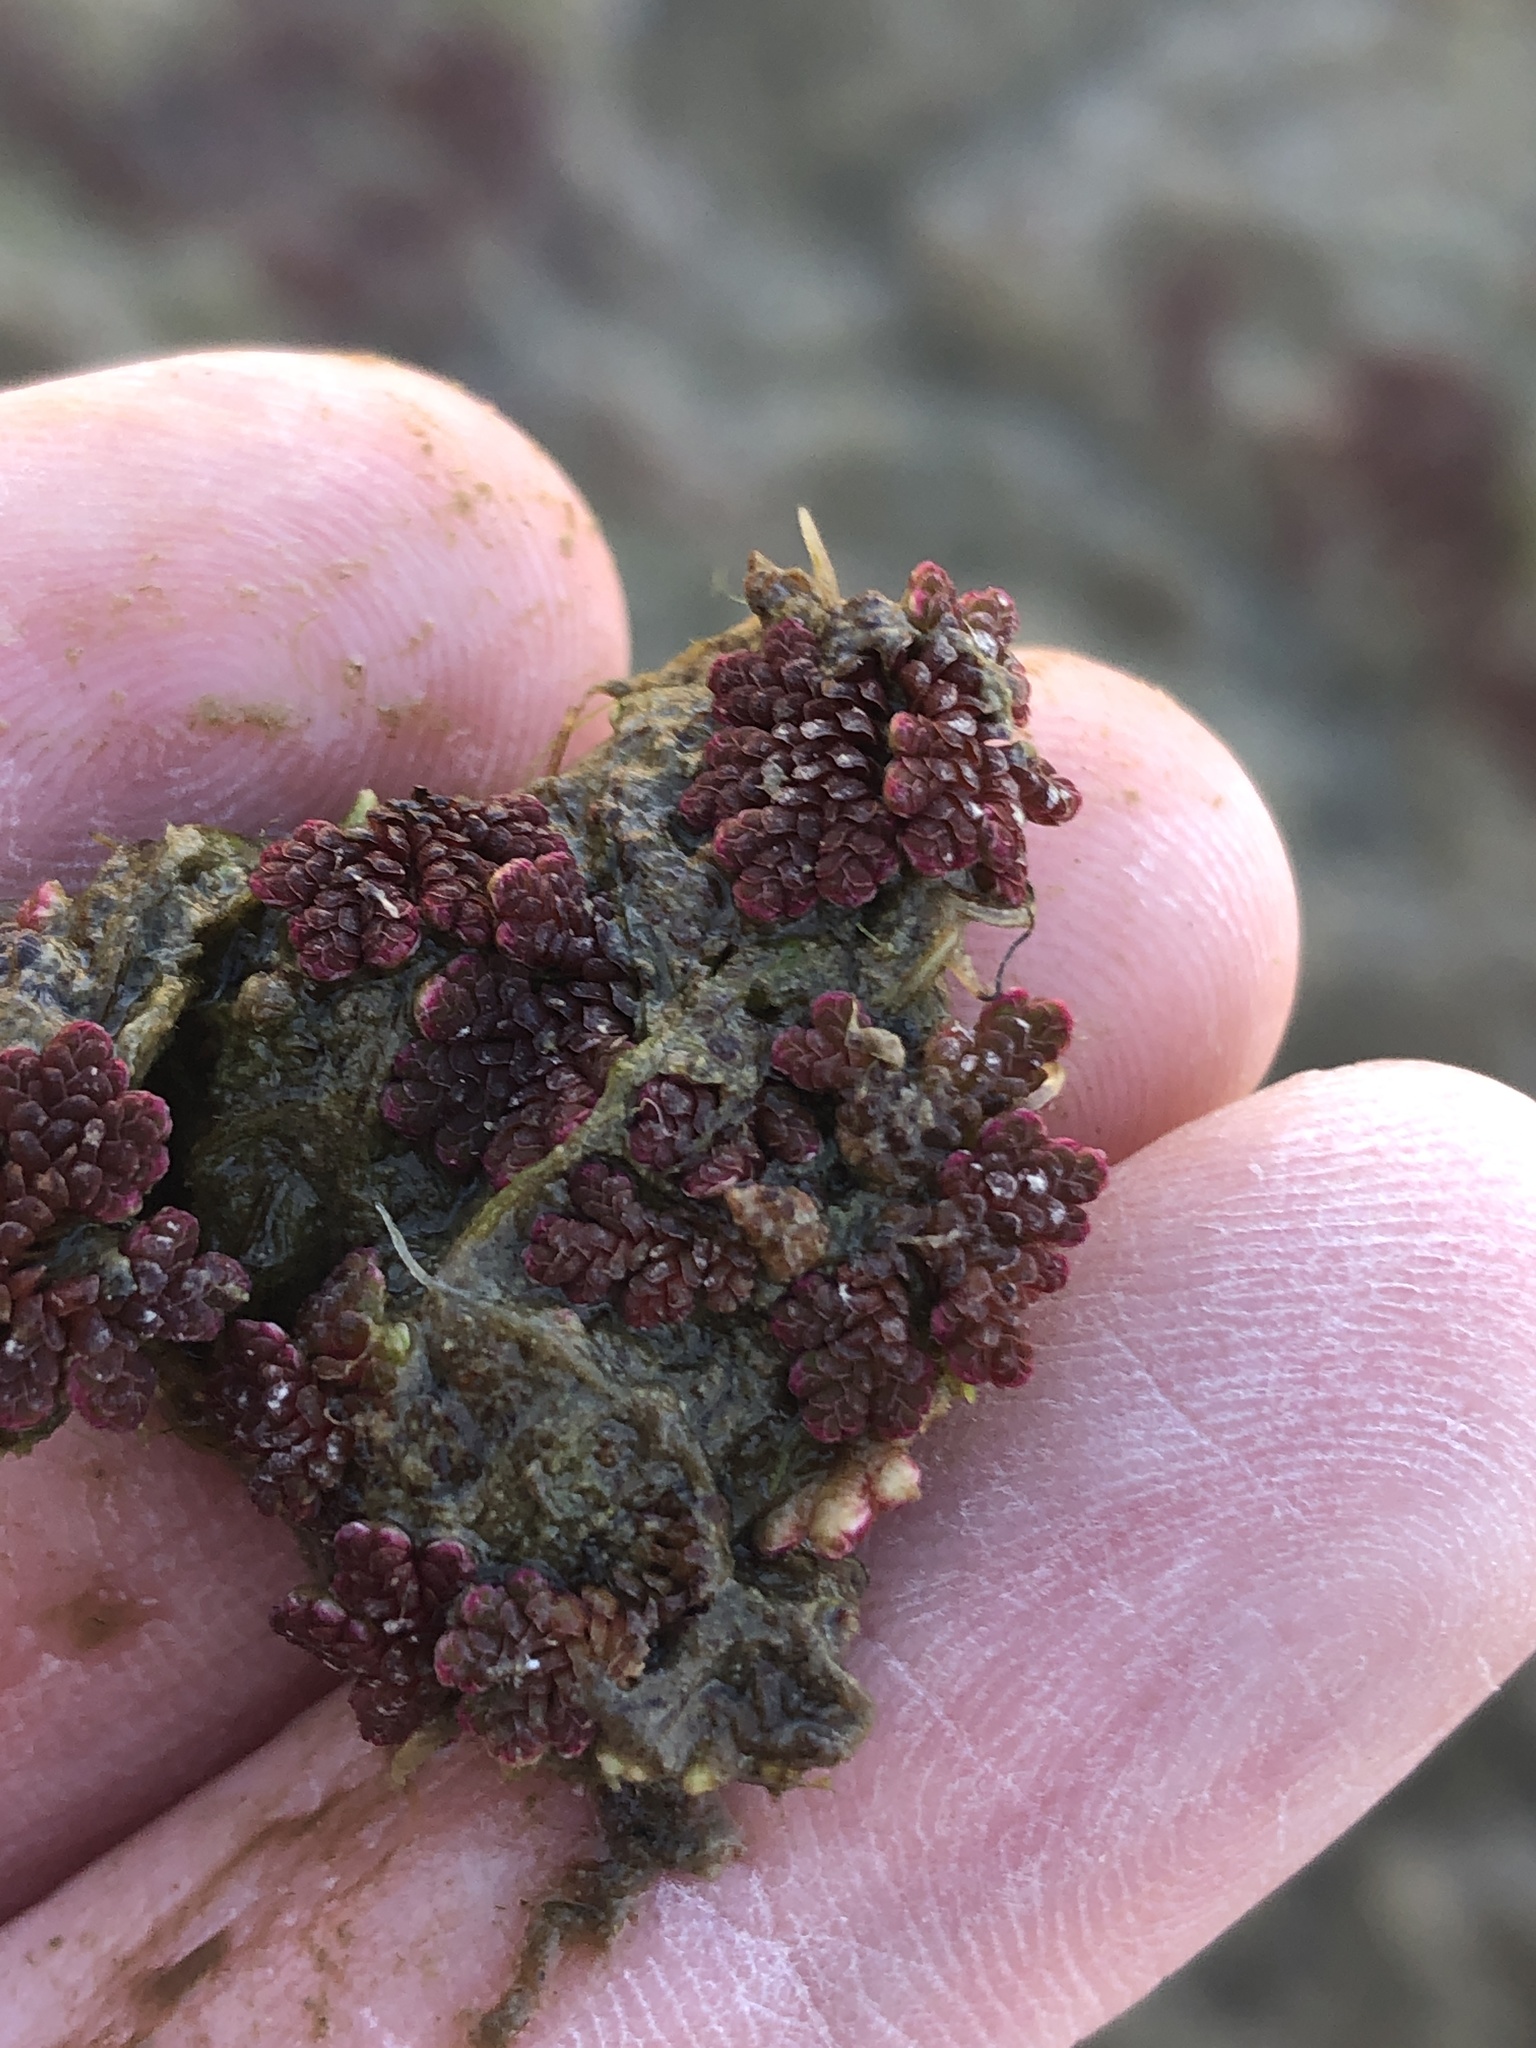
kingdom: Plantae
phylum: Tracheophyta
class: Polypodiopsida
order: Salviniales
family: Salviniaceae
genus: Azolla
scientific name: Azolla caroliniana
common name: Carolina mosquitofern
